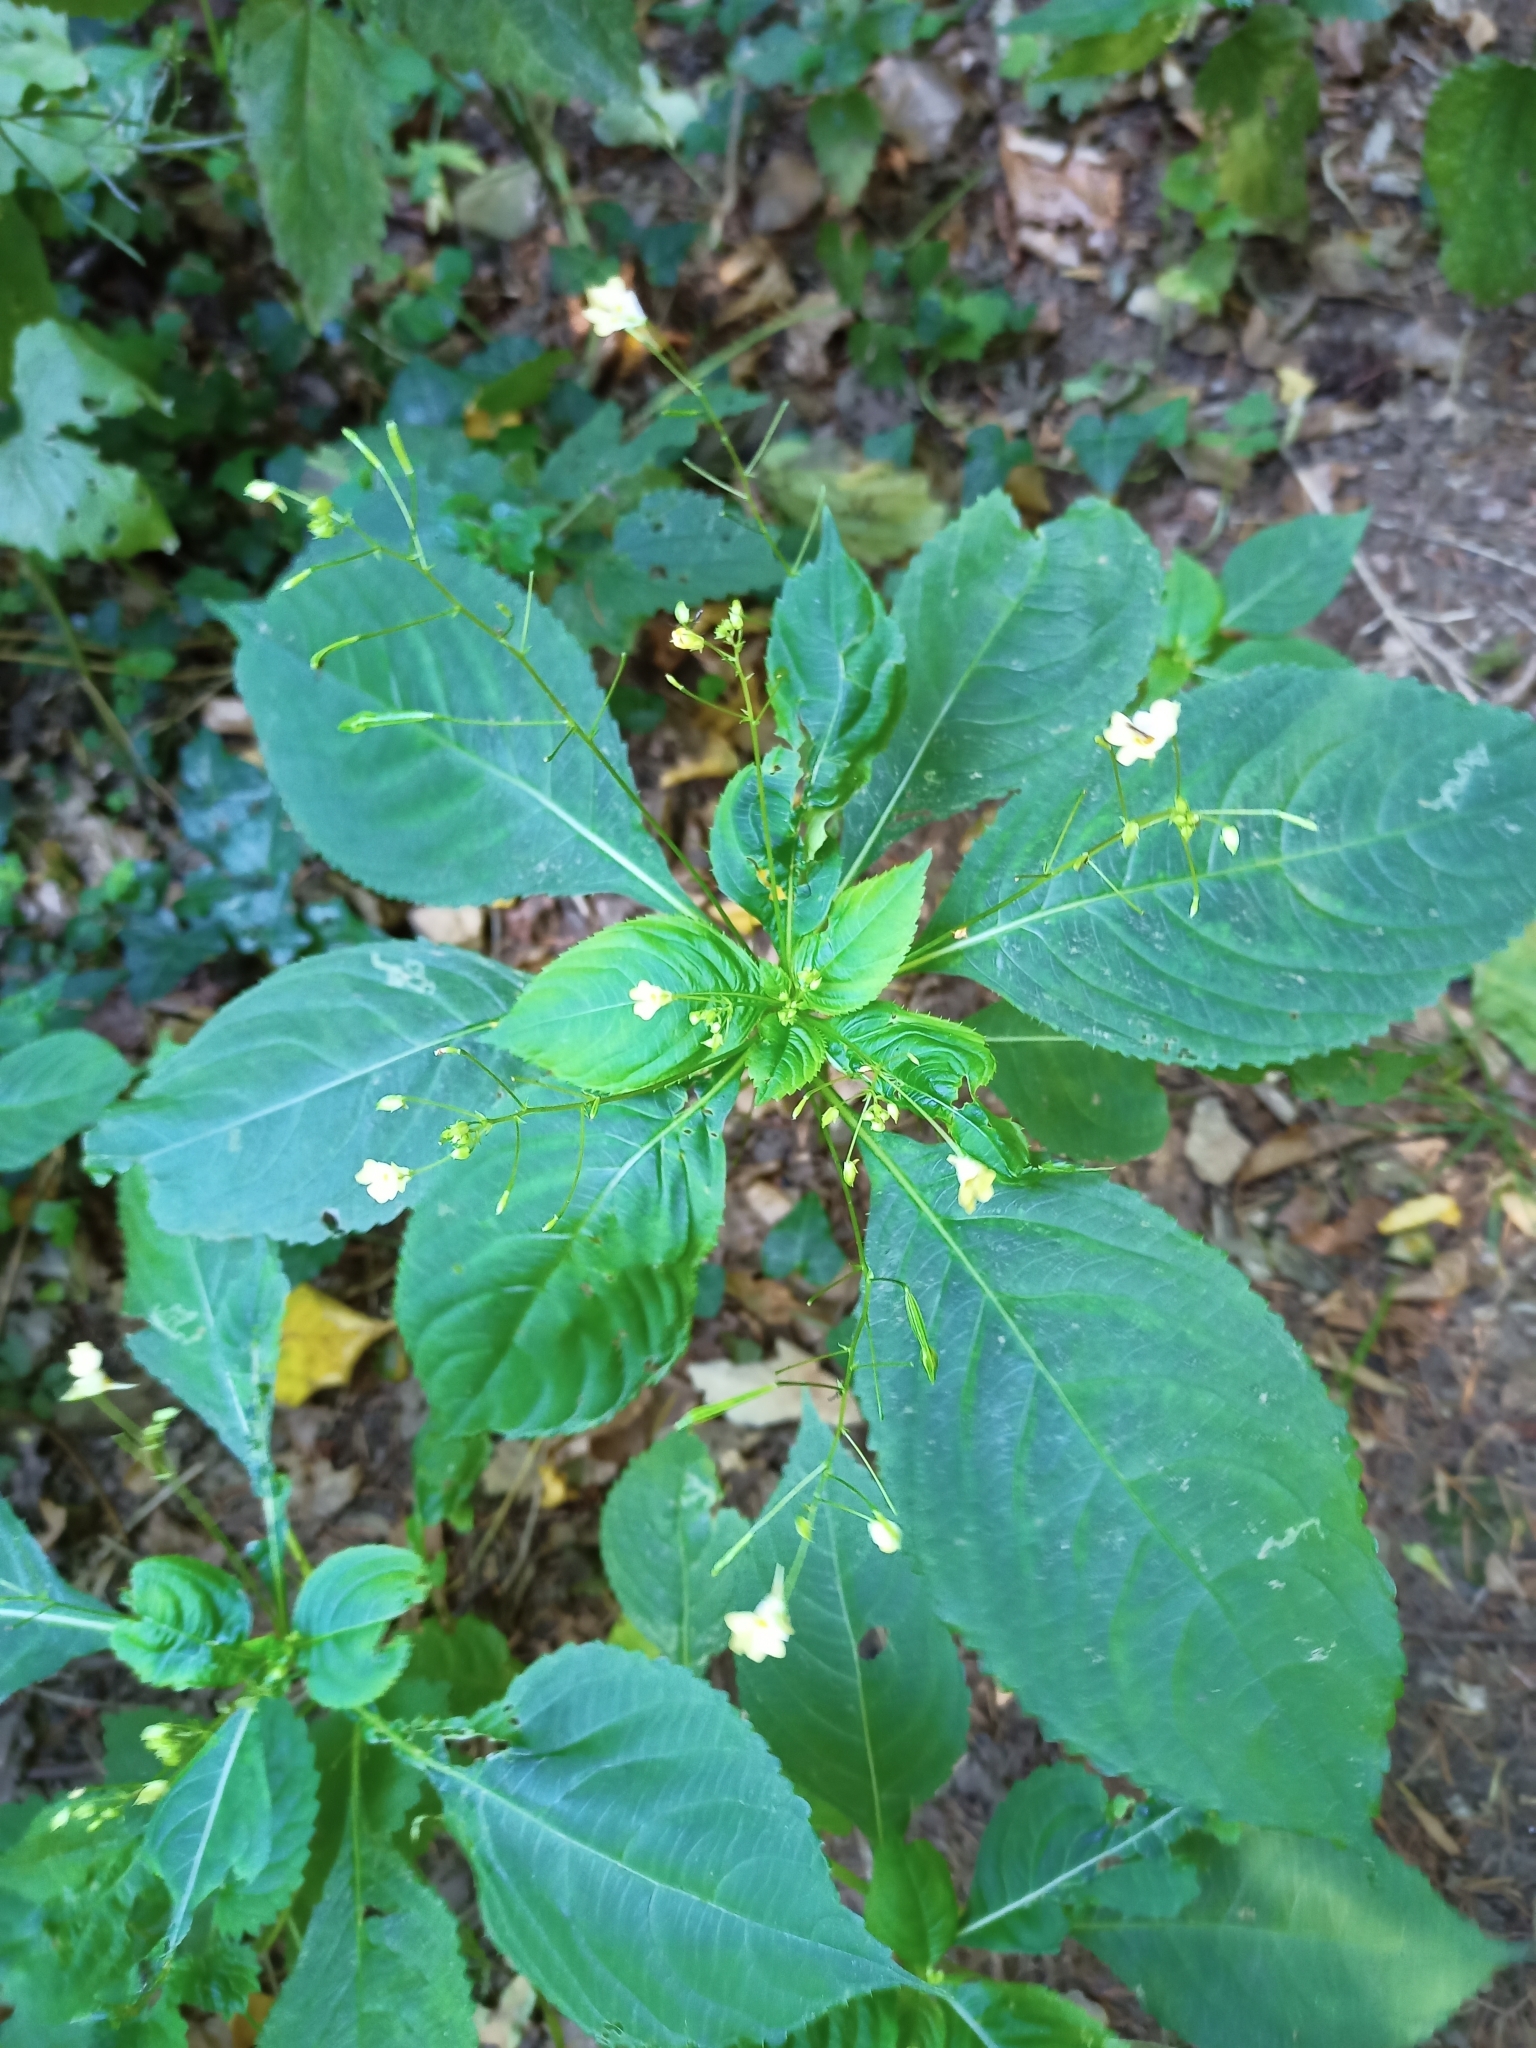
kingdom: Plantae
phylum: Tracheophyta
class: Magnoliopsida
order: Ericales
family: Balsaminaceae
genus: Impatiens
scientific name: Impatiens parviflora
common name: Small balsam
